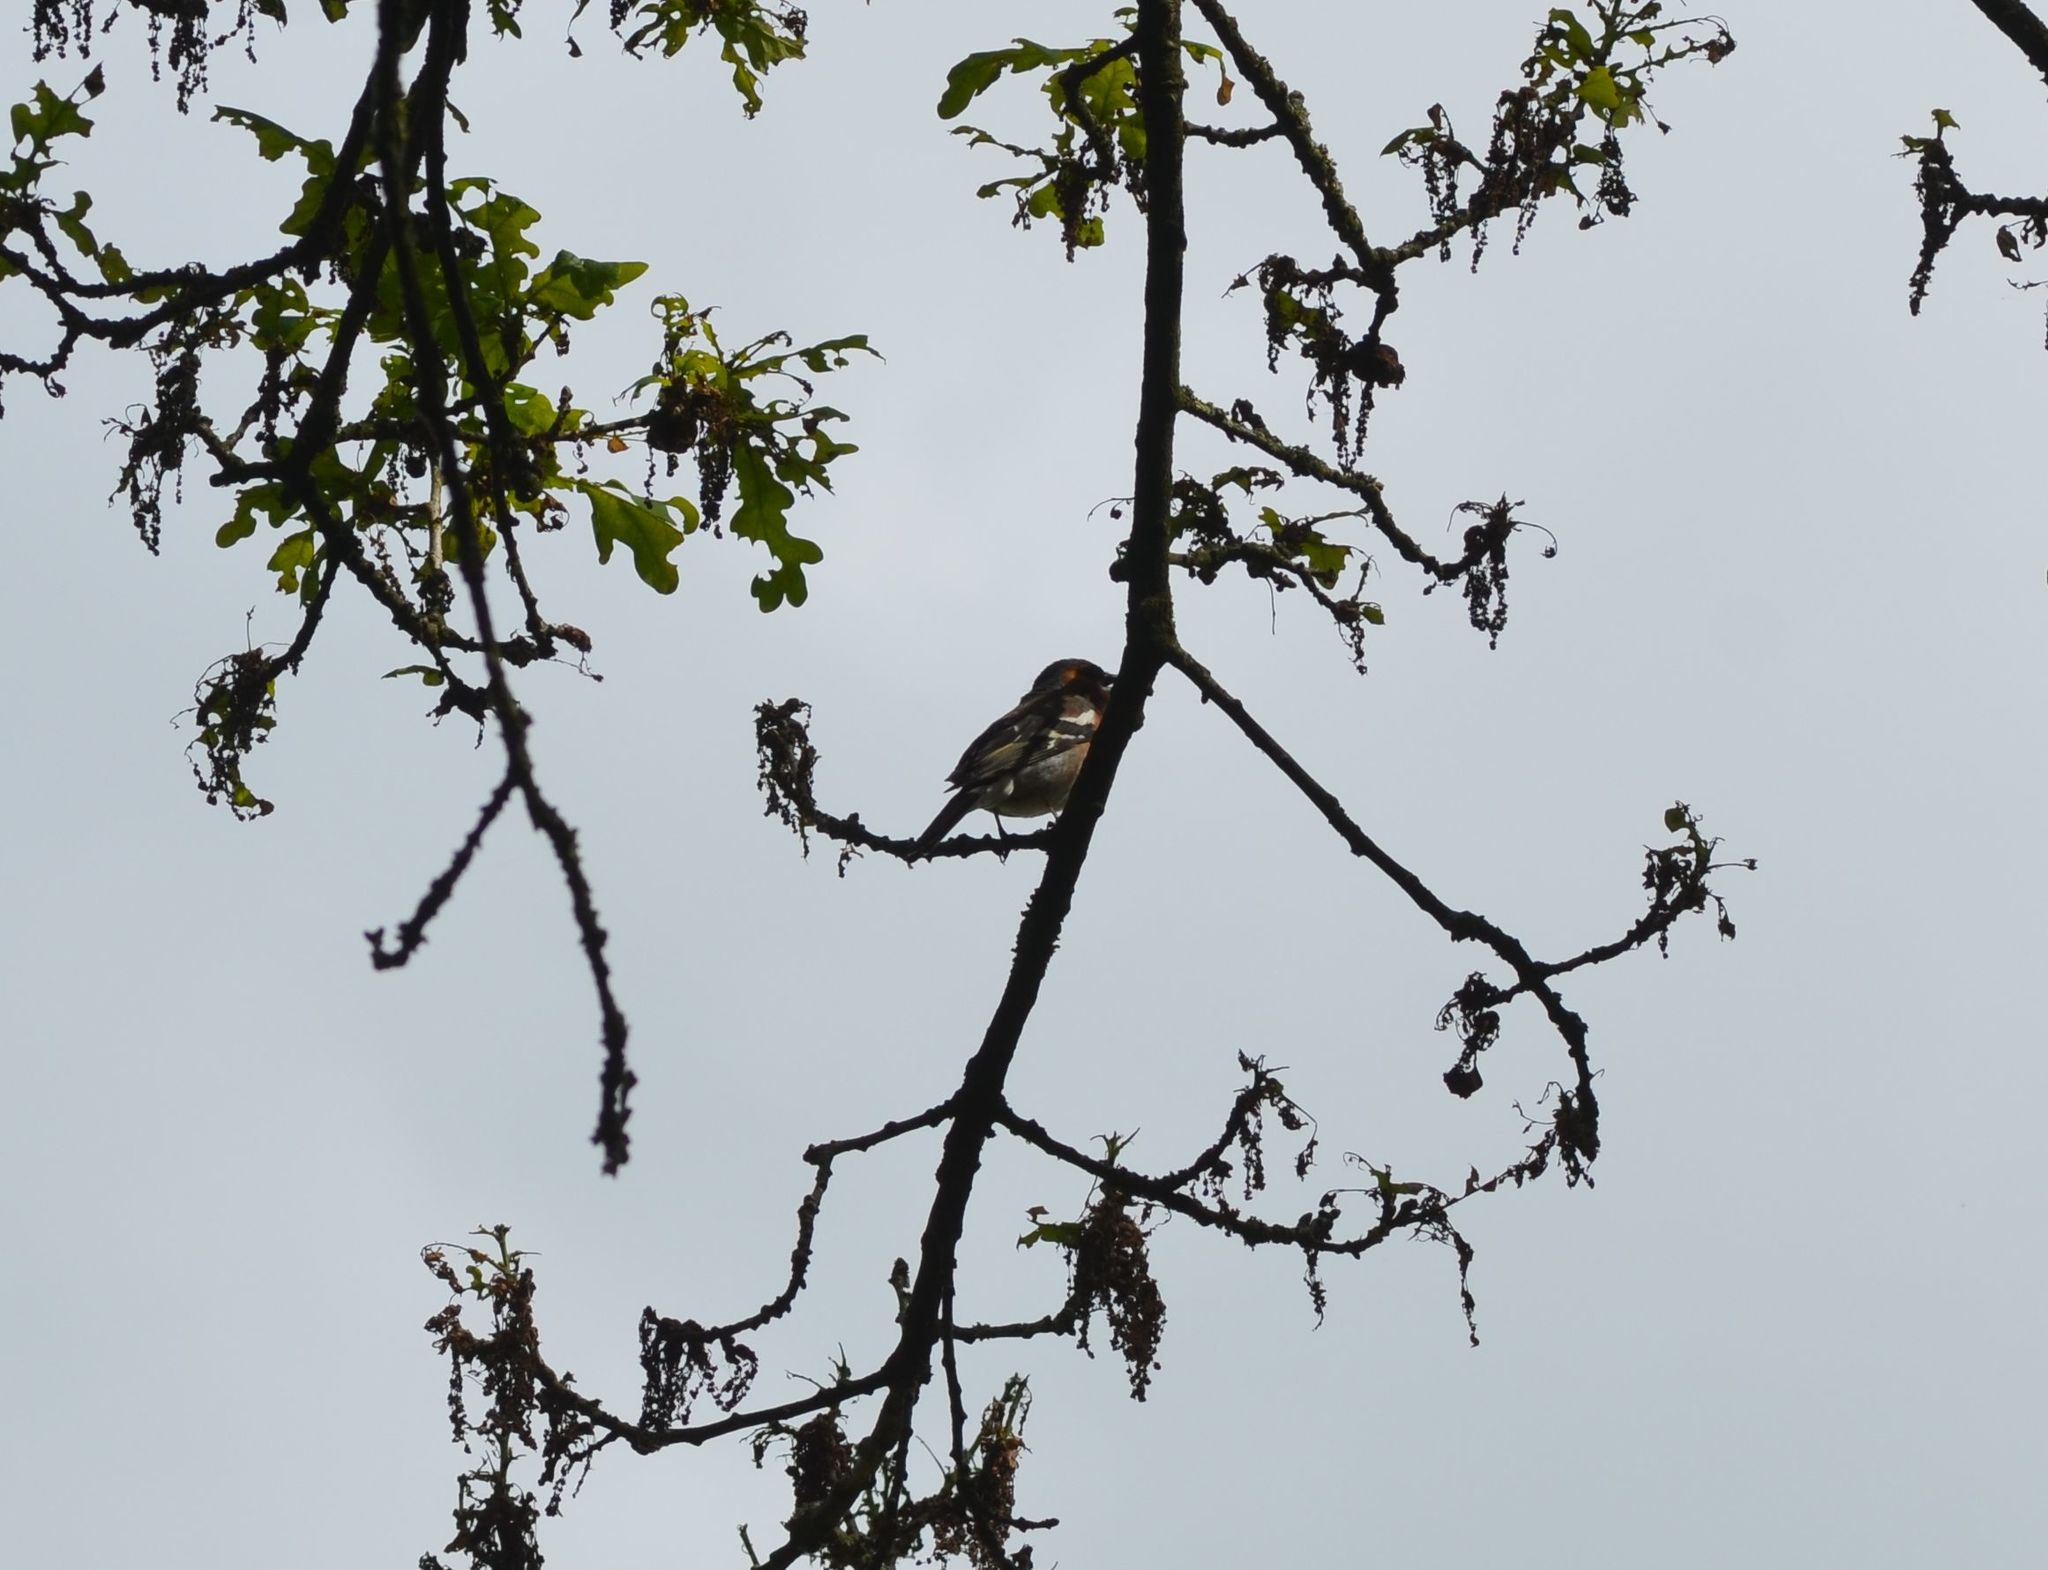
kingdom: Animalia
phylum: Chordata
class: Aves
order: Passeriformes
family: Fringillidae
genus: Fringilla
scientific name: Fringilla coelebs
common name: Common chaffinch
